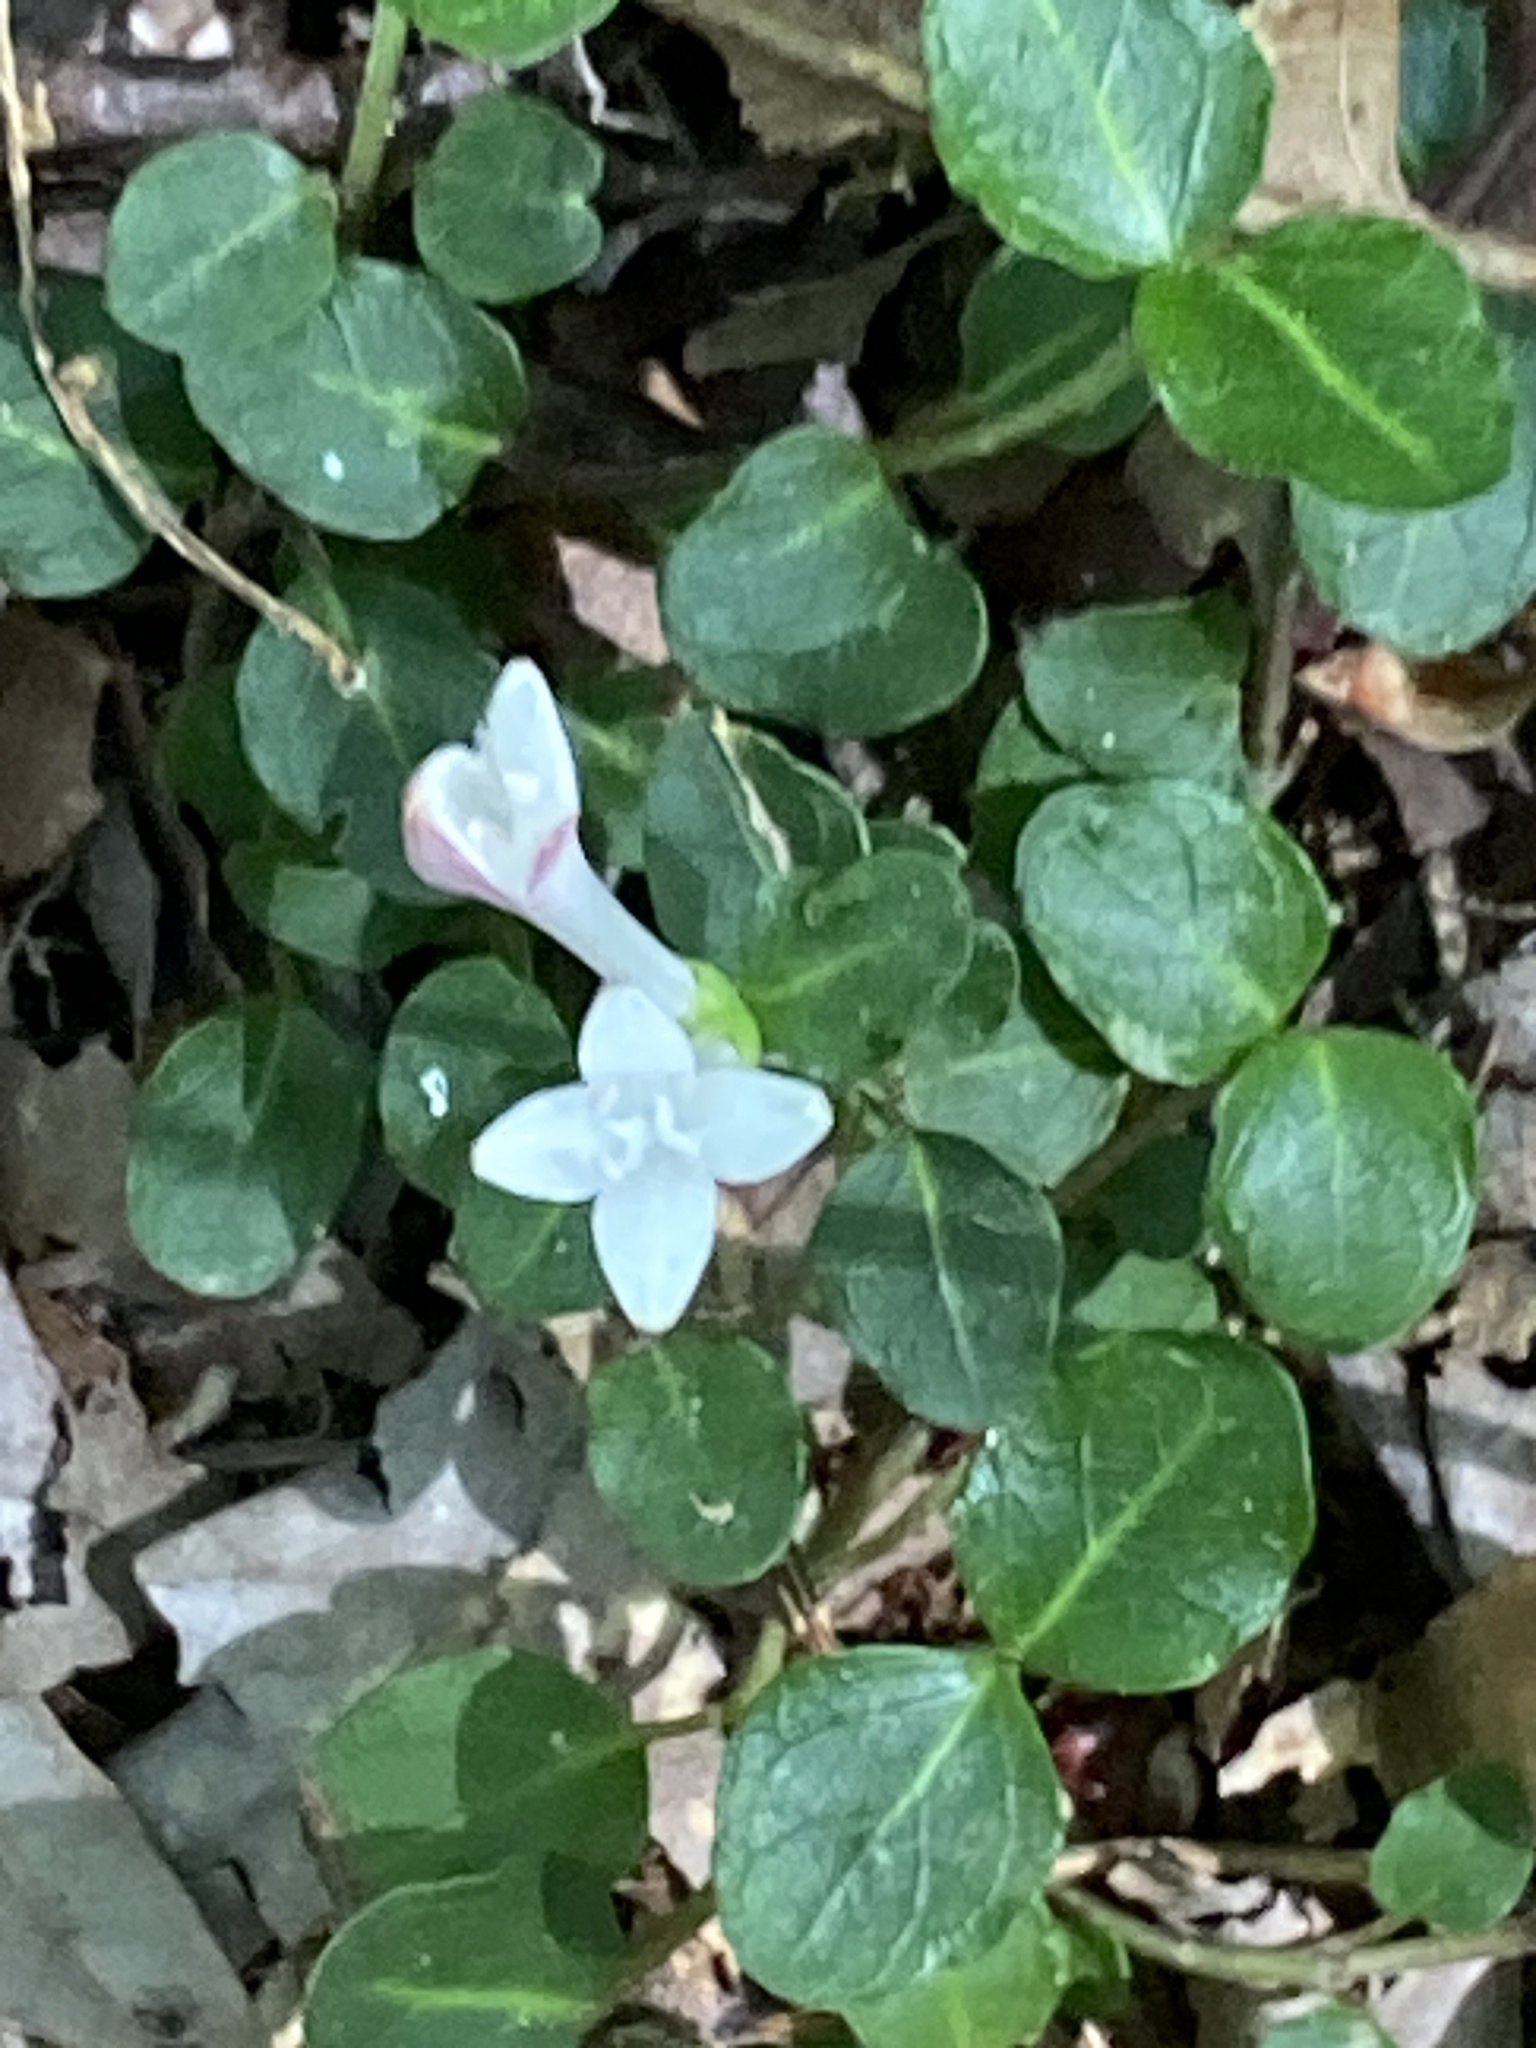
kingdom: Plantae
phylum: Tracheophyta
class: Magnoliopsida
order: Gentianales
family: Rubiaceae
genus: Mitchella
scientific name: Mitchella repens
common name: Partridge-berry
